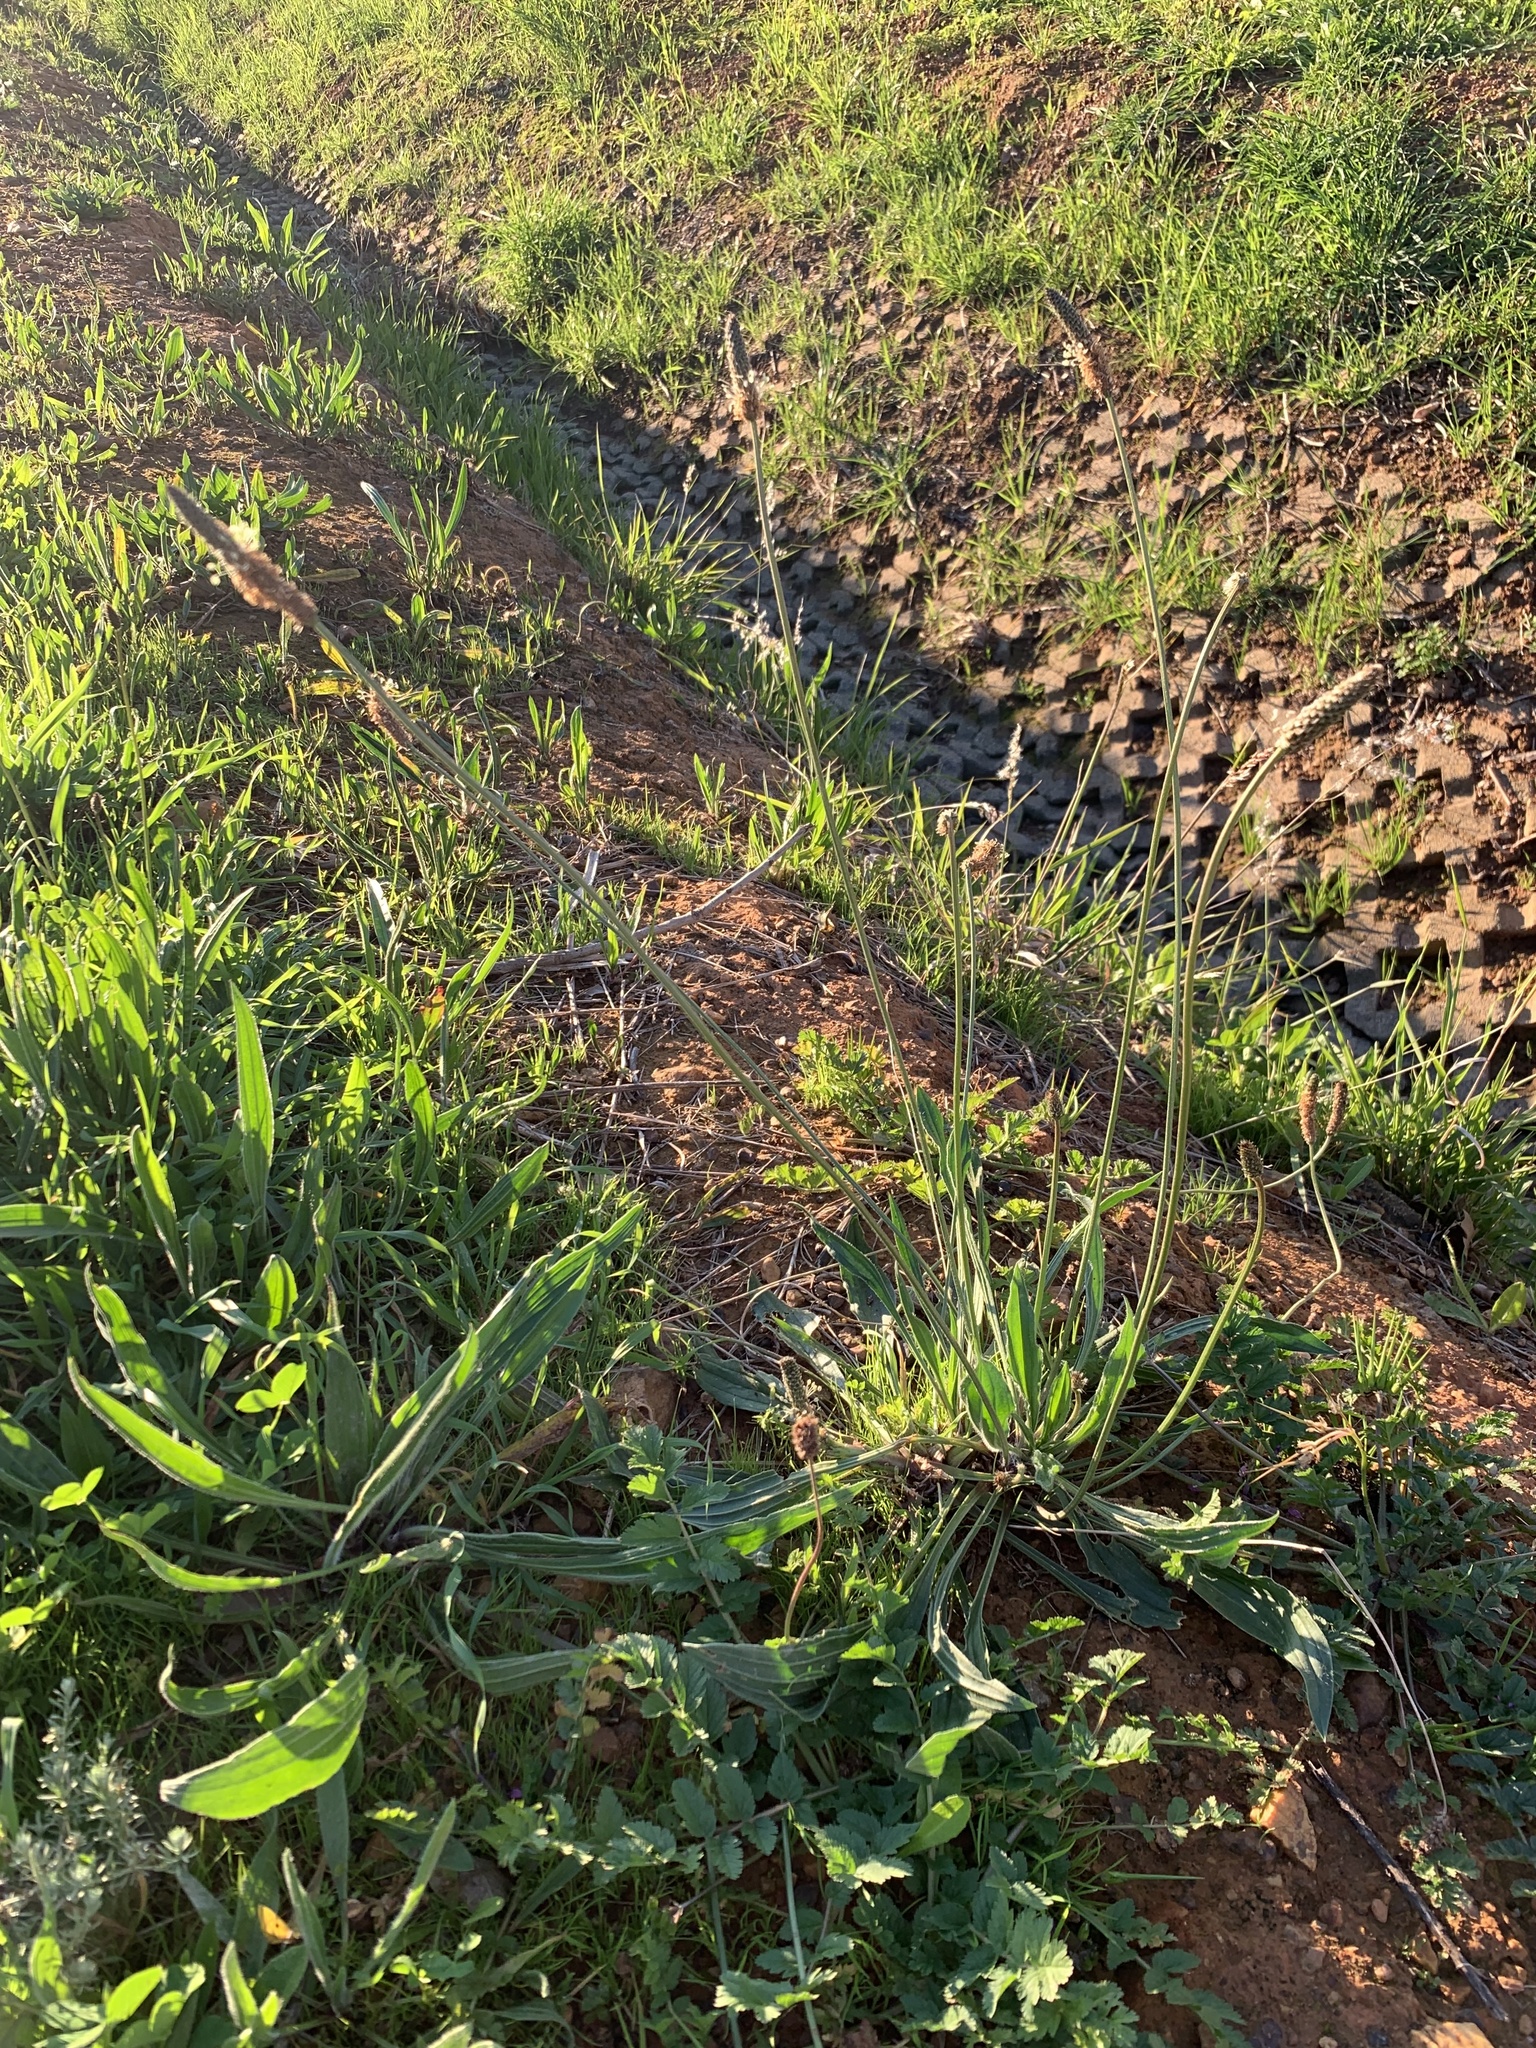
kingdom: Plantae
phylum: Tracheophyta
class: Magnoliopsida
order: Lamiales
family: Plantaginaceae
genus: Plantago
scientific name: Plantago lanceolata
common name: Ribwort plantain
